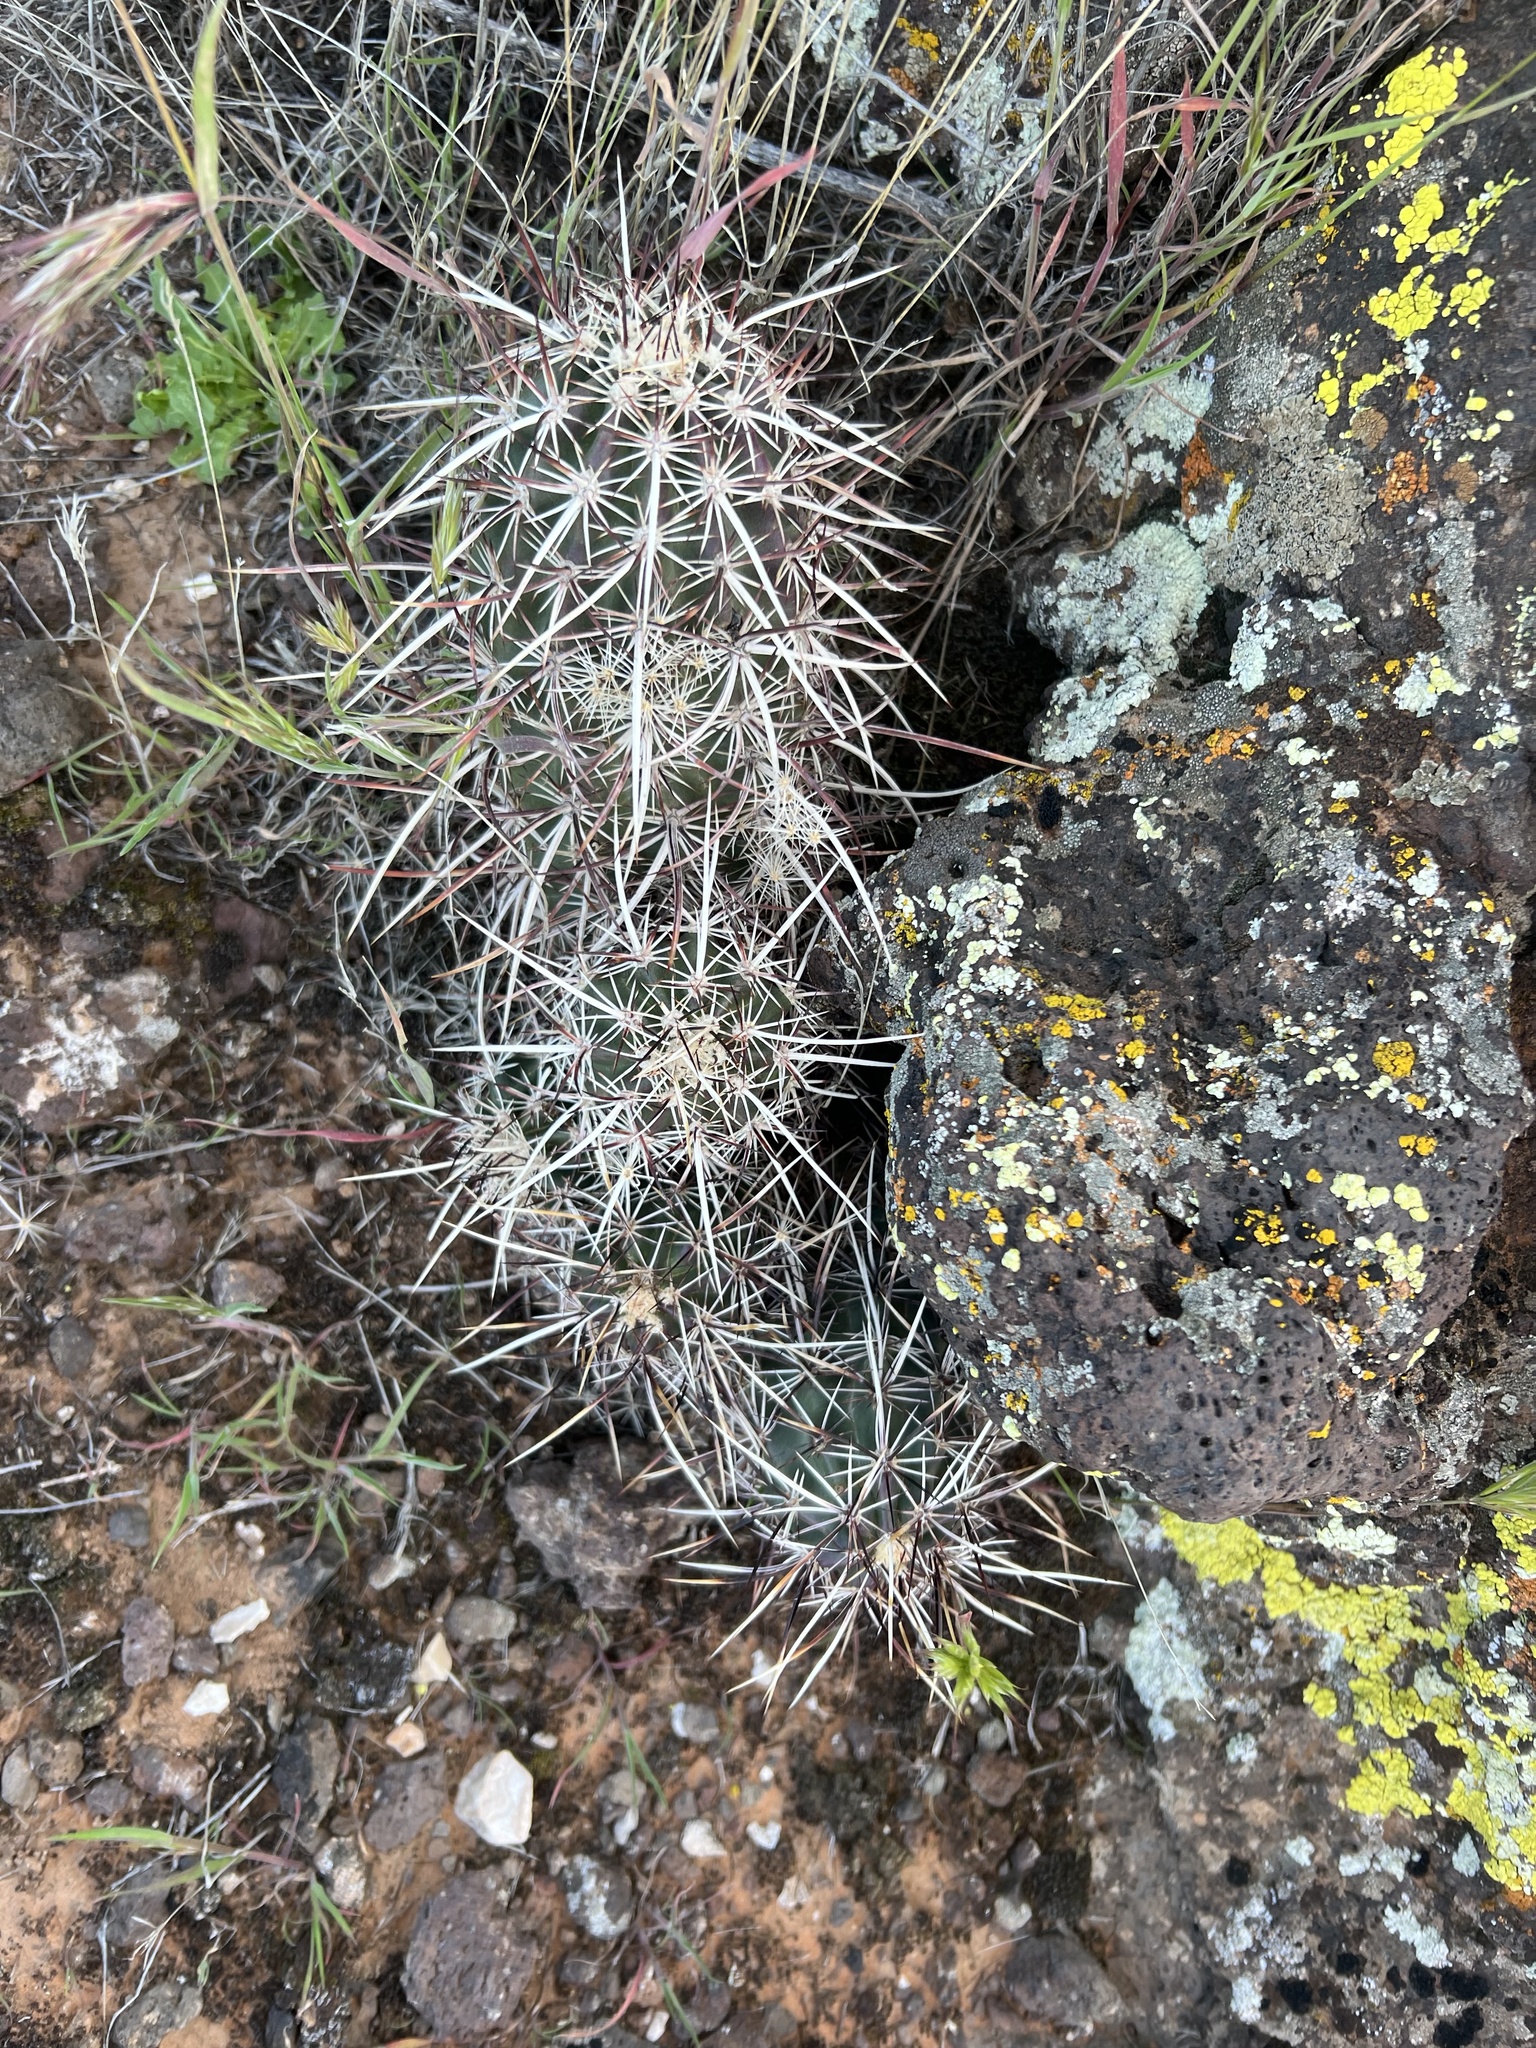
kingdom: Plantae
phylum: Tracheophyta
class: Magnoliopsida
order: Caryophyllales
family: Cactaceae
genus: Echinocereus
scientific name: Echinocereus relictus
